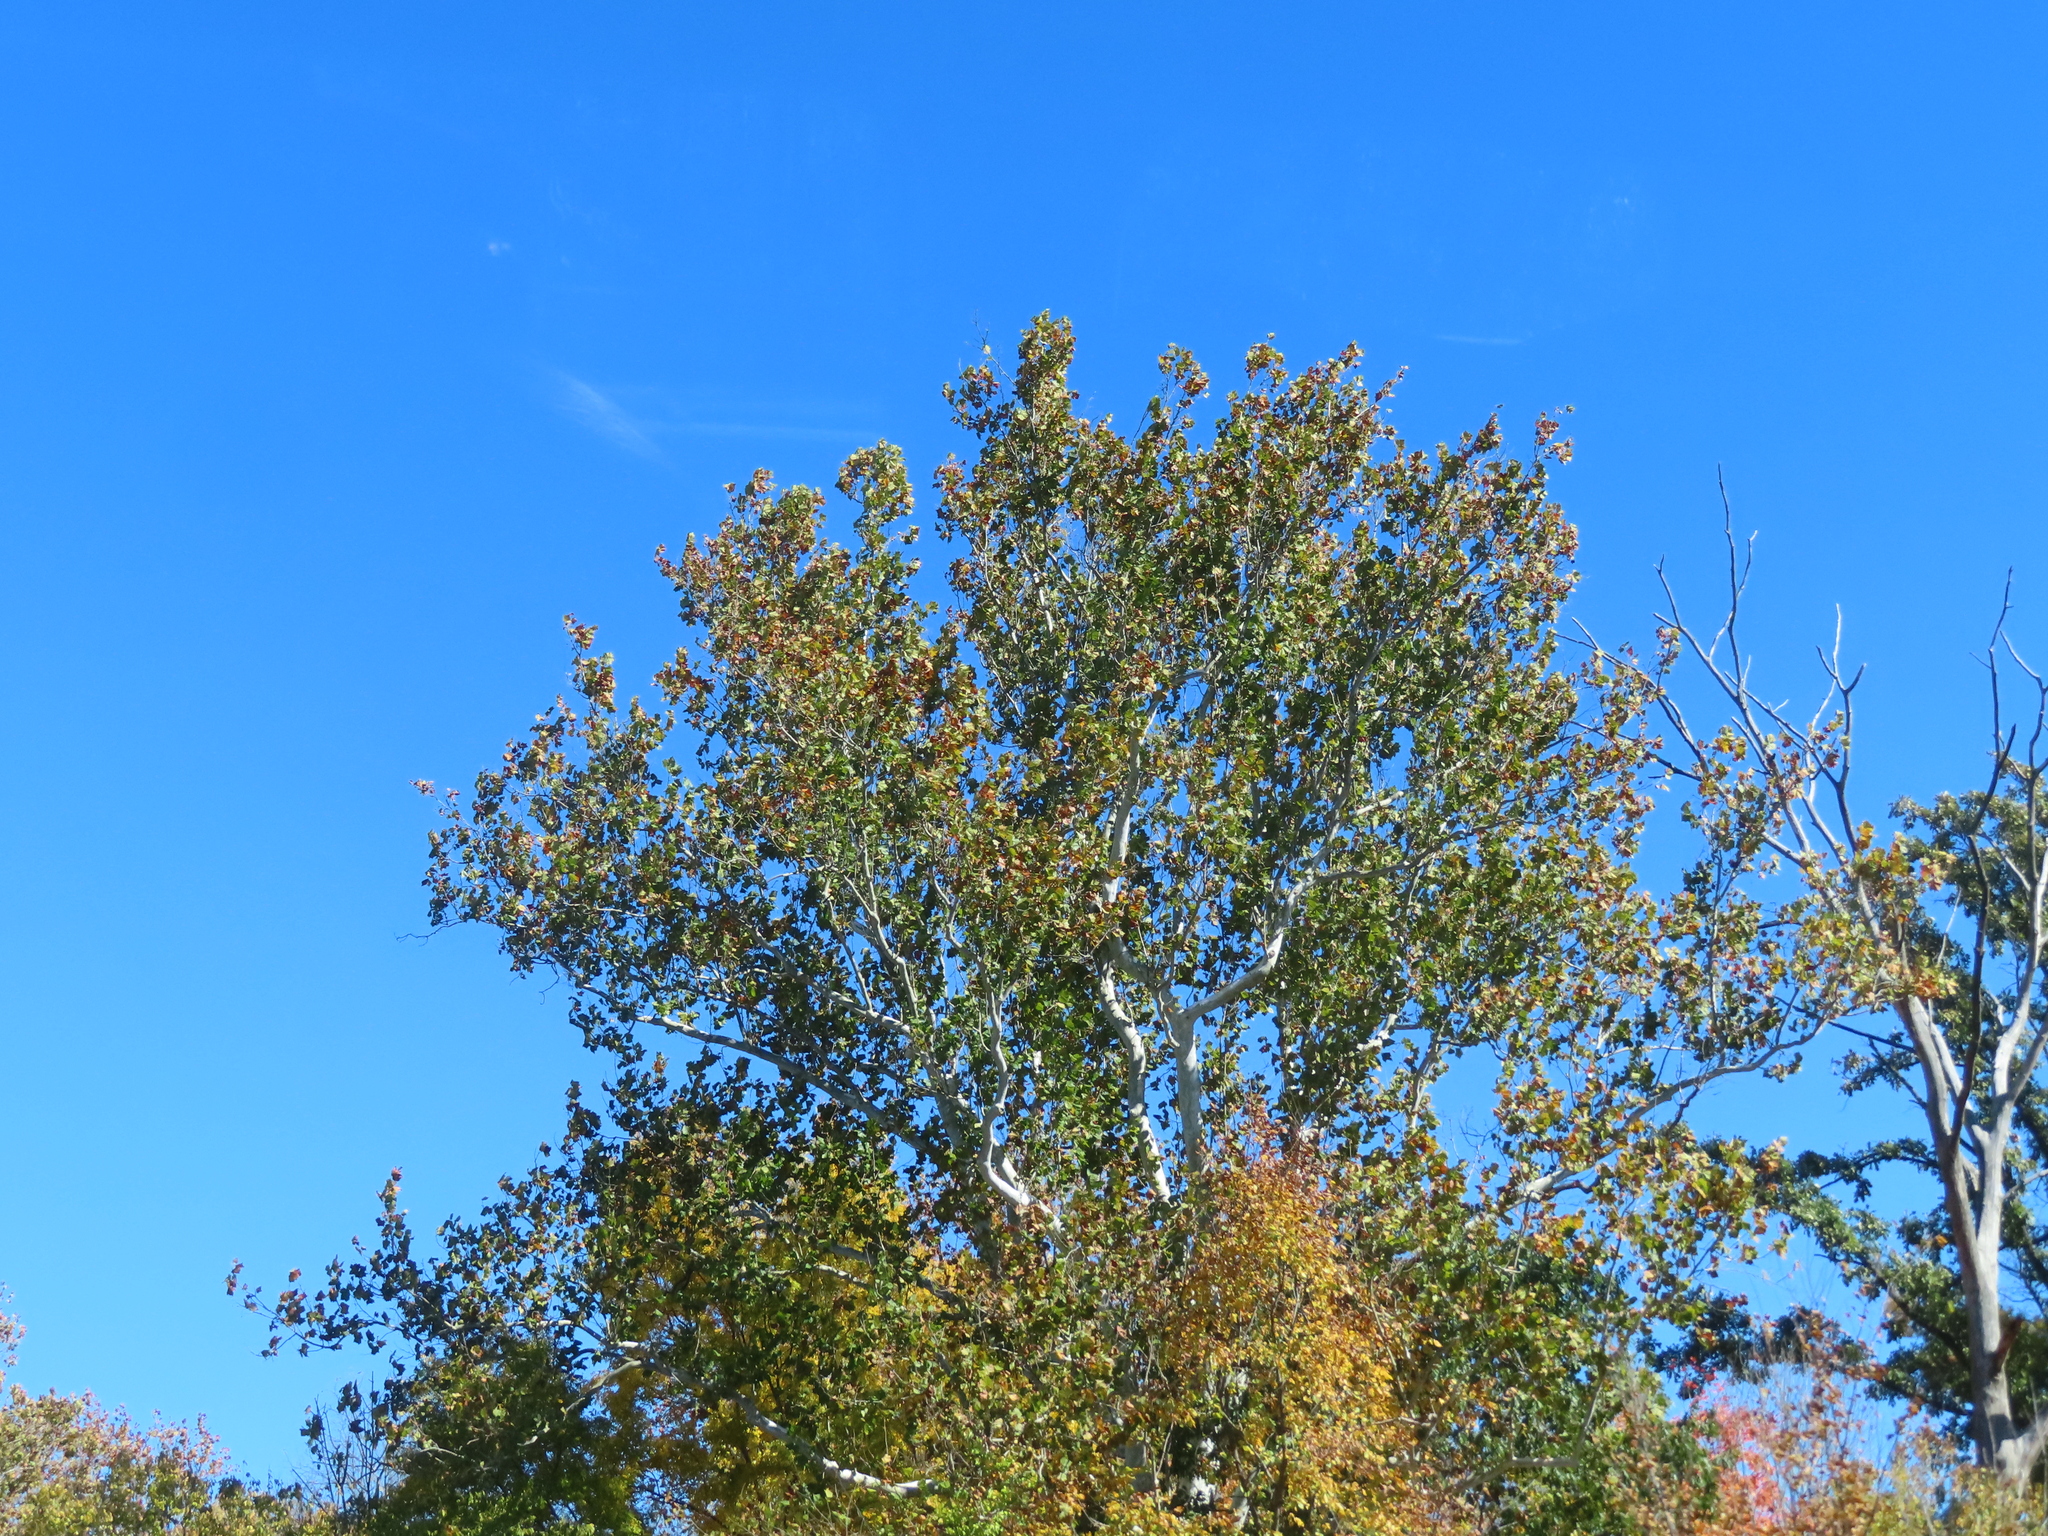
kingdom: Plantae
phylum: Tracheophyta
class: Magnoliopsida
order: Proteales
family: Platanaceae
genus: Platanus
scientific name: Platanus occidentalis
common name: American sycamore
